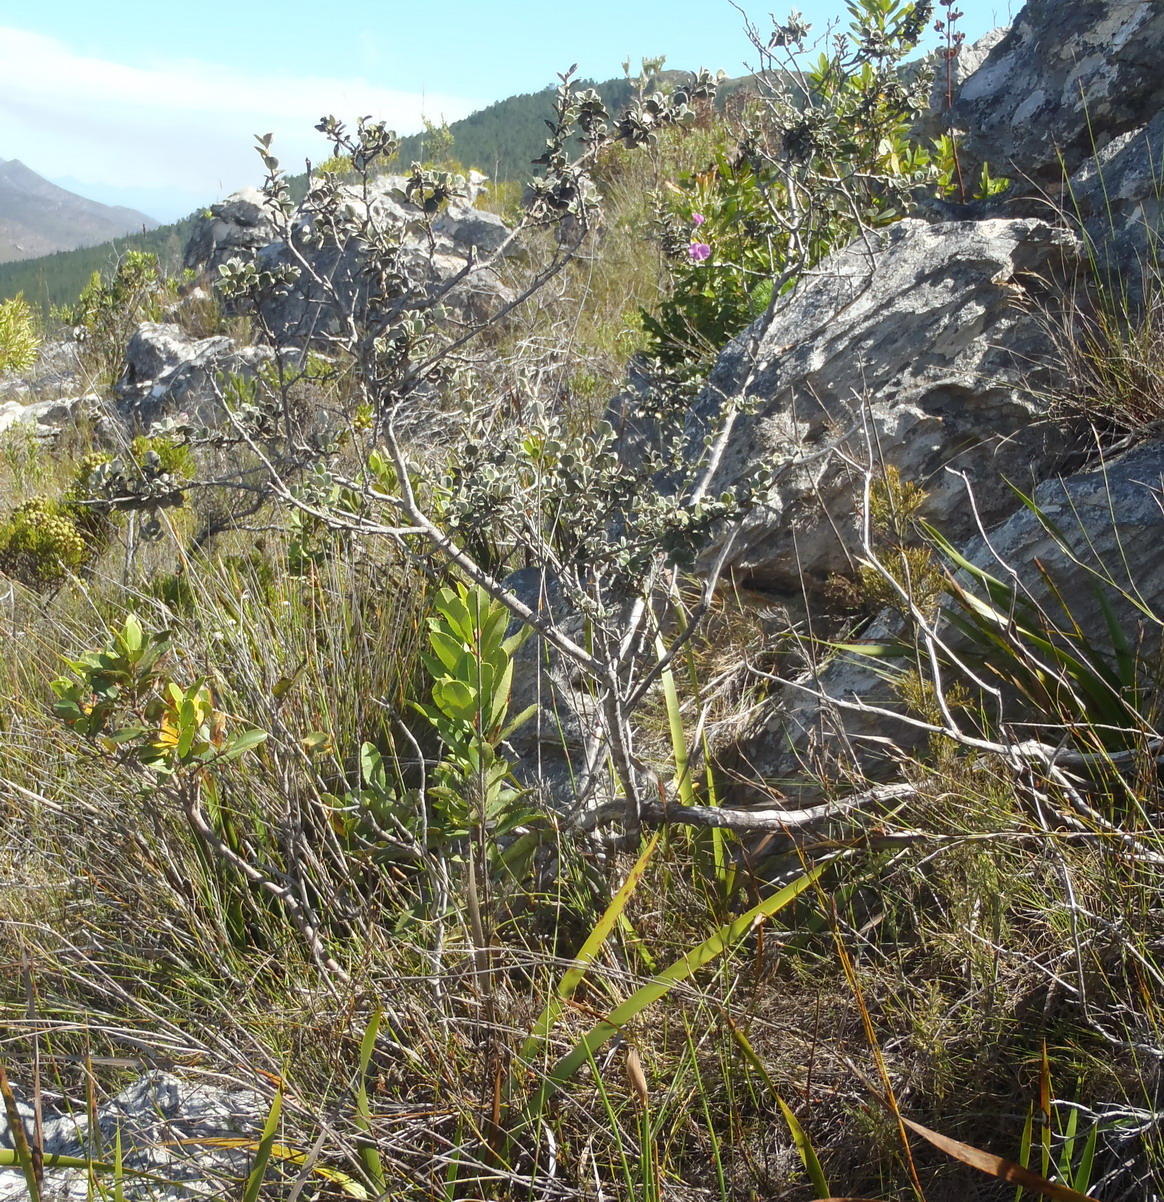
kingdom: Plantae
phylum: Tracheophyta
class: Magnoliopsida
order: Fabales
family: Fabaceae
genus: Podalyria
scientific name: Podalyria hirsuta
